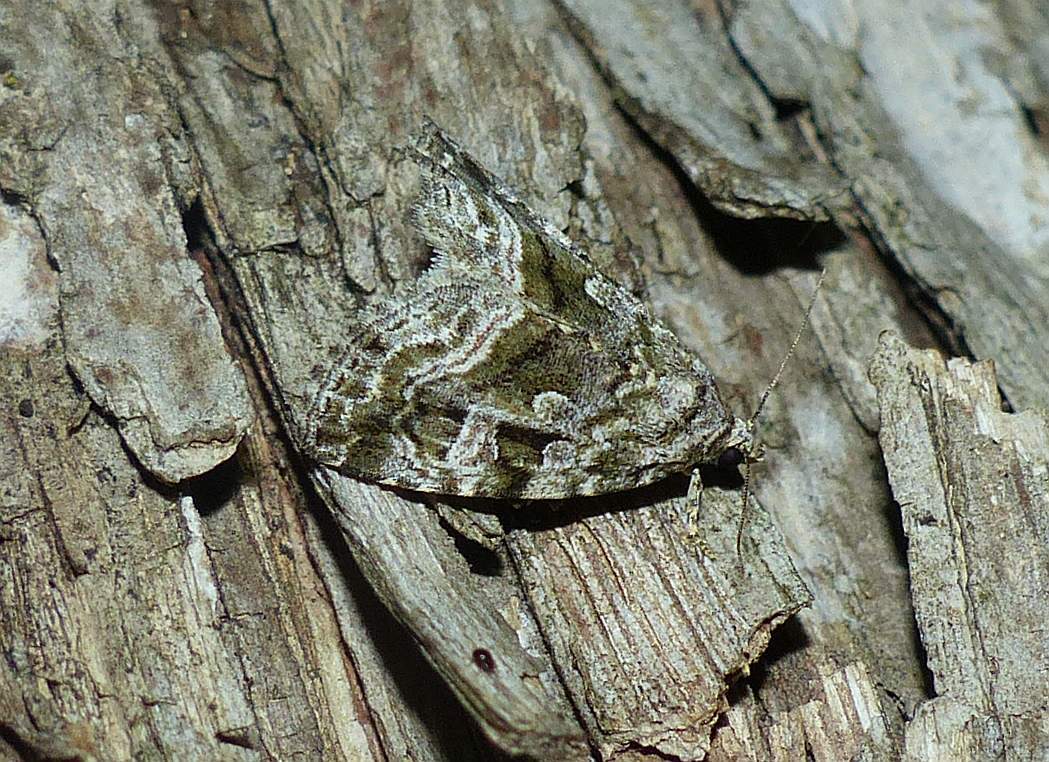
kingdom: Animalia
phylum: Arthropoda
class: Insecta
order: Lepidoptera
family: Noctuidae
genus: Protodeltote
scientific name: Protodeltote muscosula
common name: Large mossy glyph
